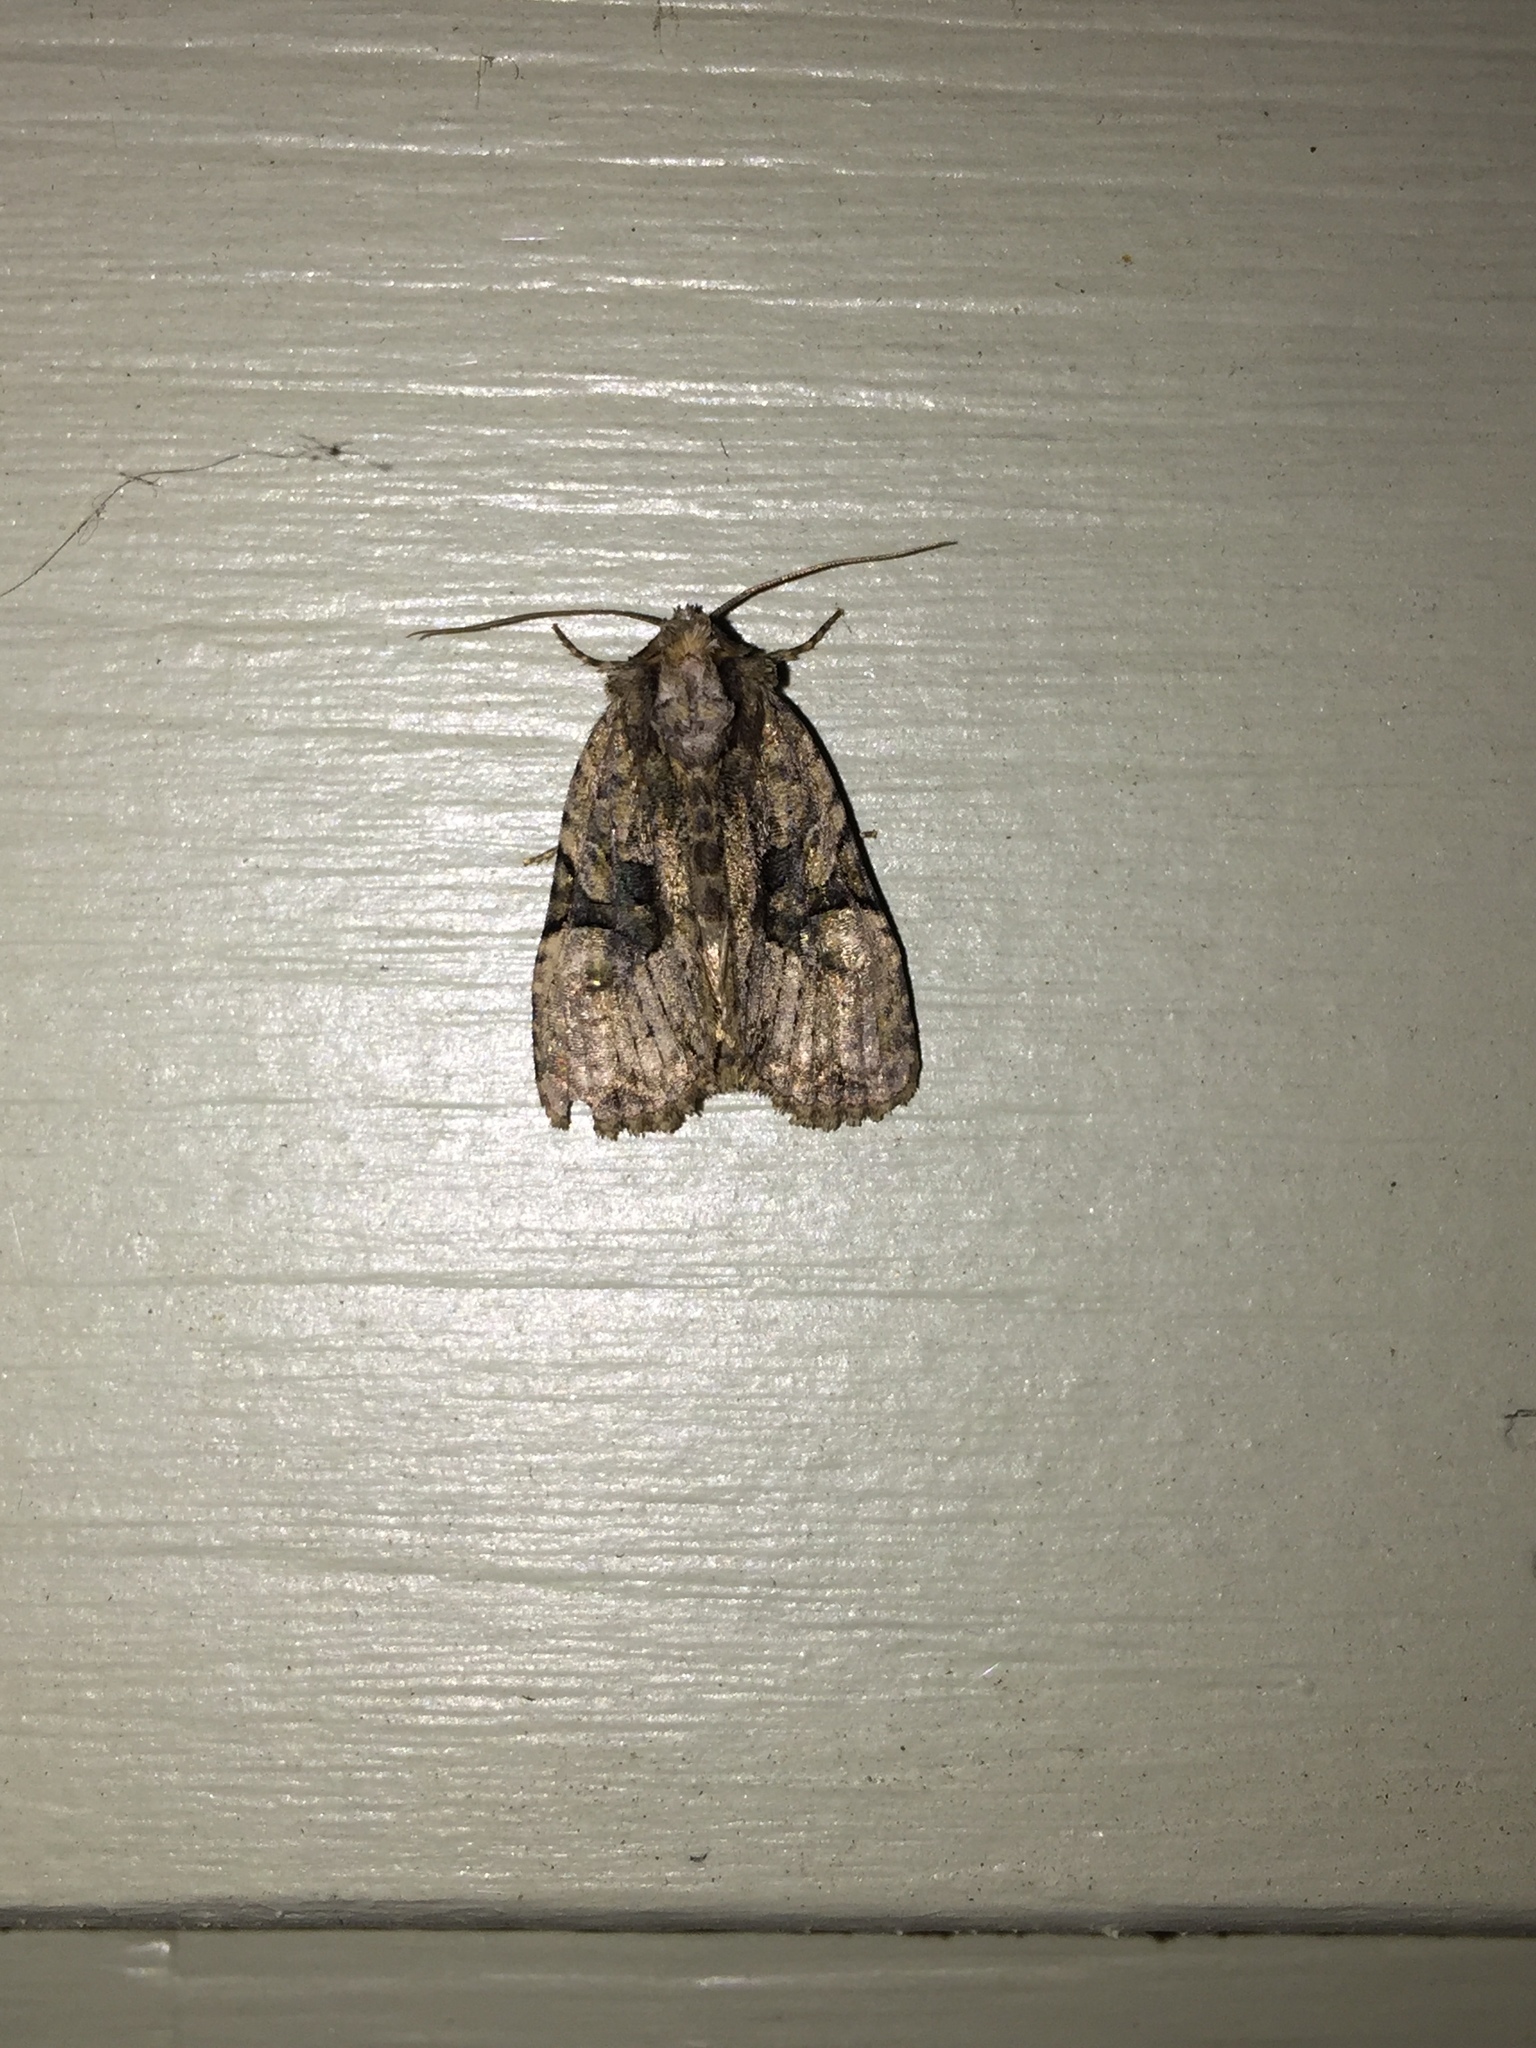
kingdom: Animalia
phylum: Arthropoda
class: Insecta
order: Lepidoptera
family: Noctuidae
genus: Oligia
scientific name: Oligia modica
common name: Black-banded brocade
